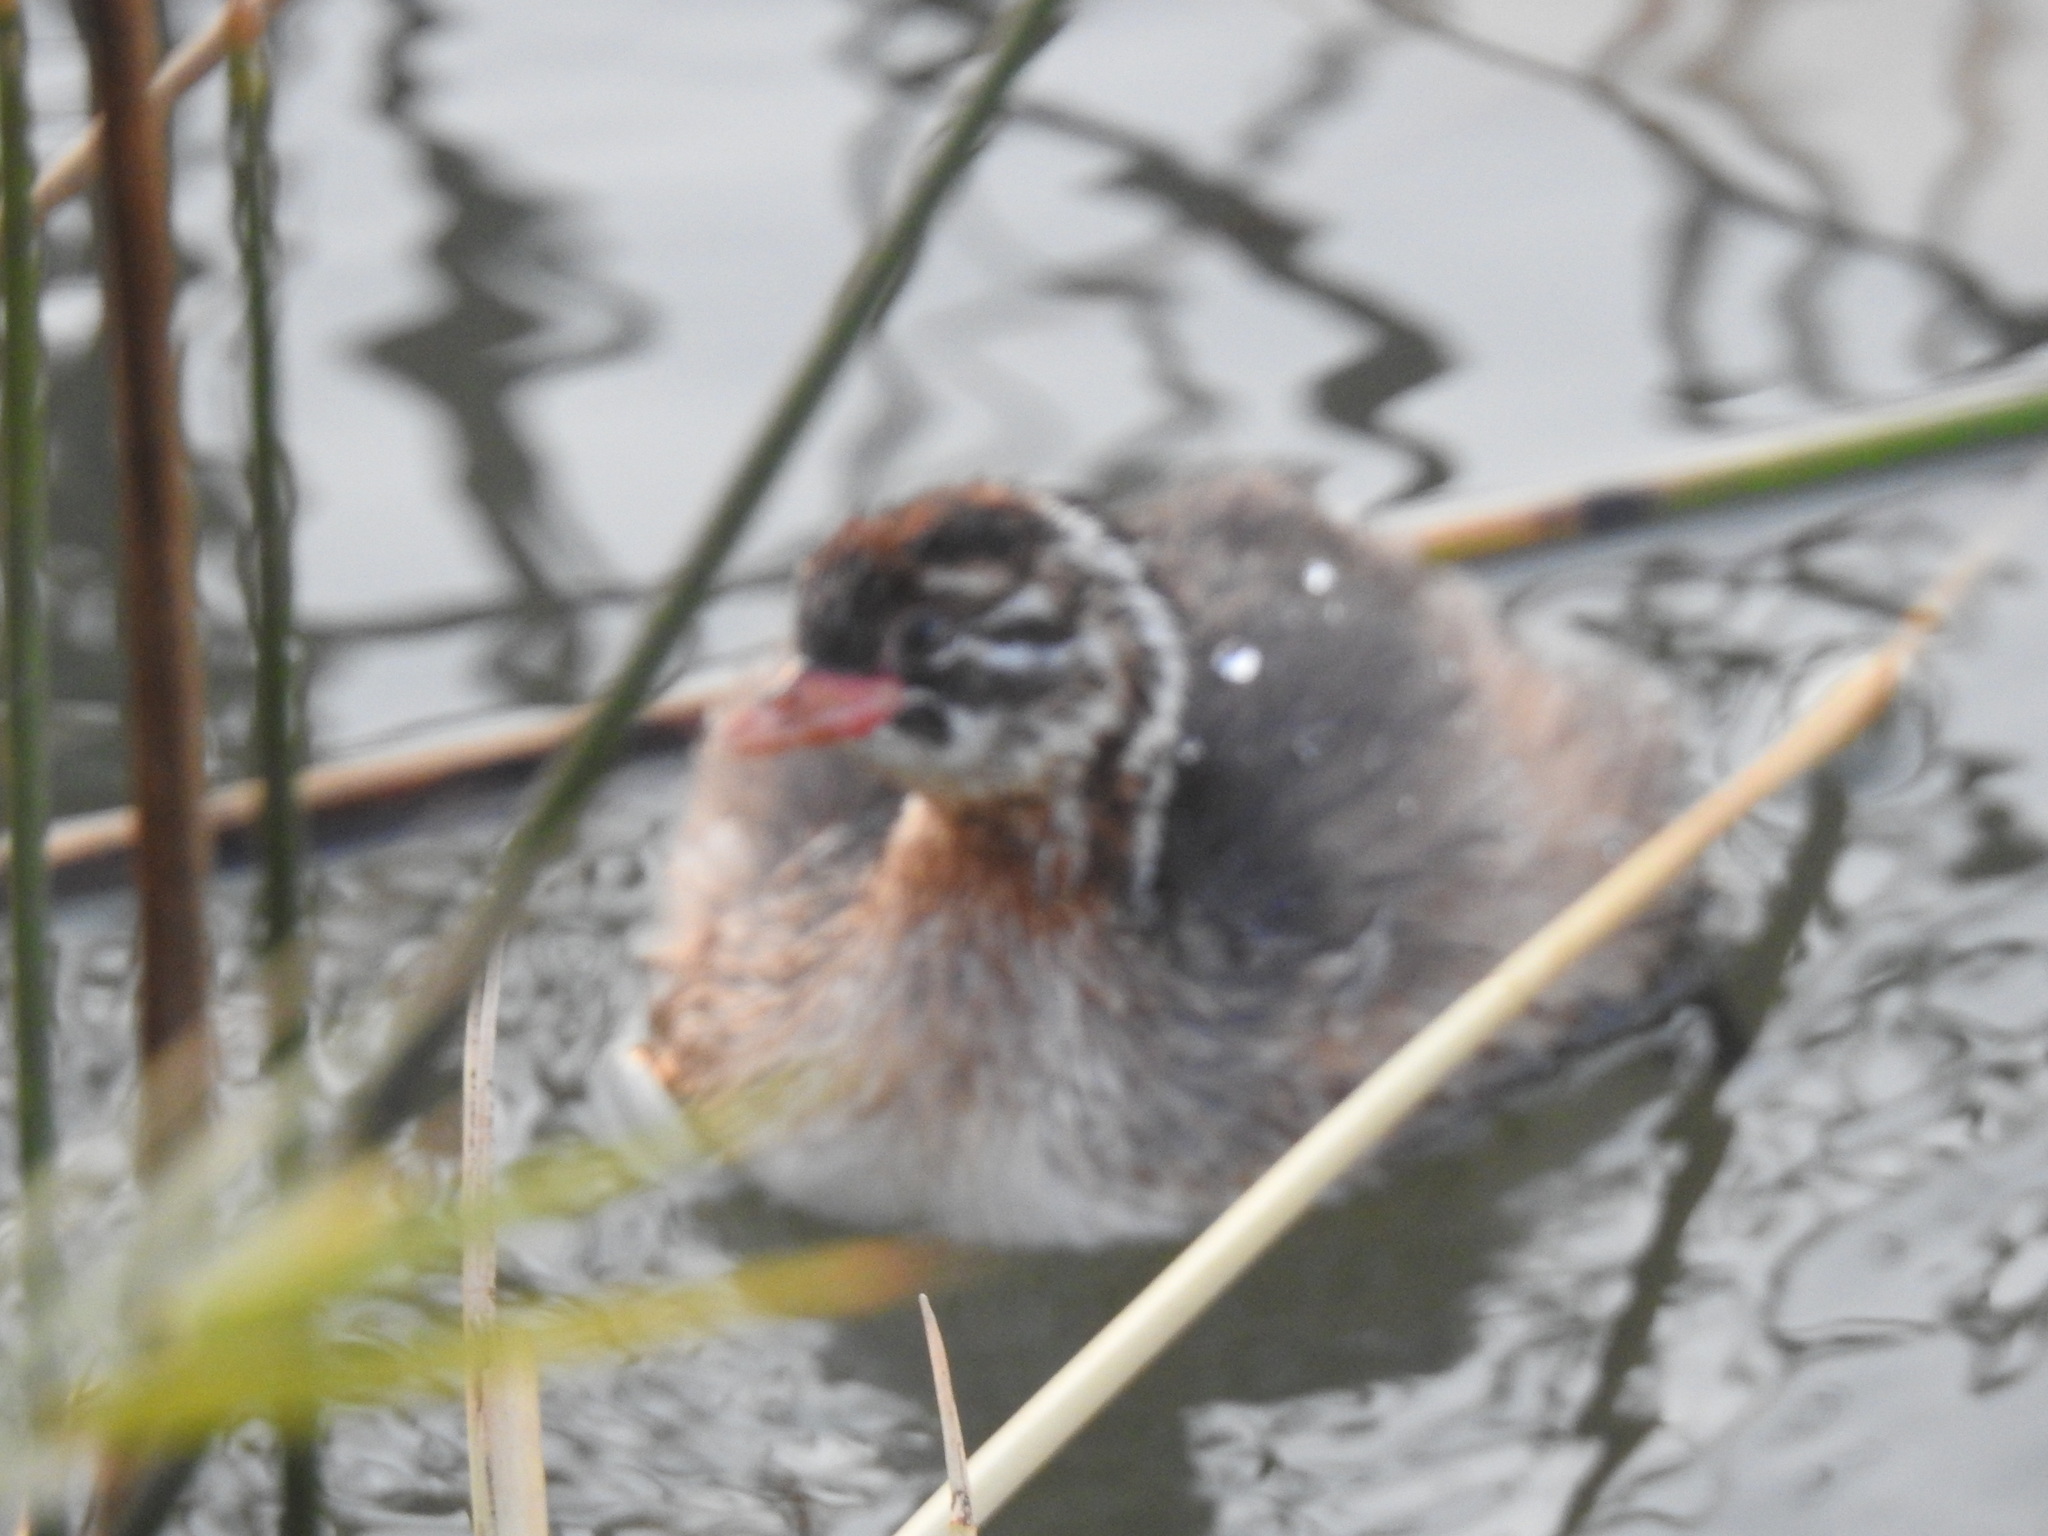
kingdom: Animalia
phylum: Chordata
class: Aves
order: Podicipediformes
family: Podicipedidae
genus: Tachybaptus
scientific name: Tachybaptus ruficollis
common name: Little grebe
